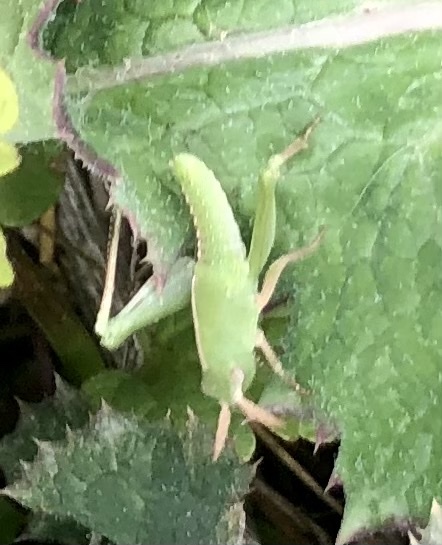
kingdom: Animalia
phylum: Arthropoda
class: Insecta
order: Orthoptera
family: Acrididae
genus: Chortophaga
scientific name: Chortophaga viridifasciata
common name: Green-striped grasshopper
